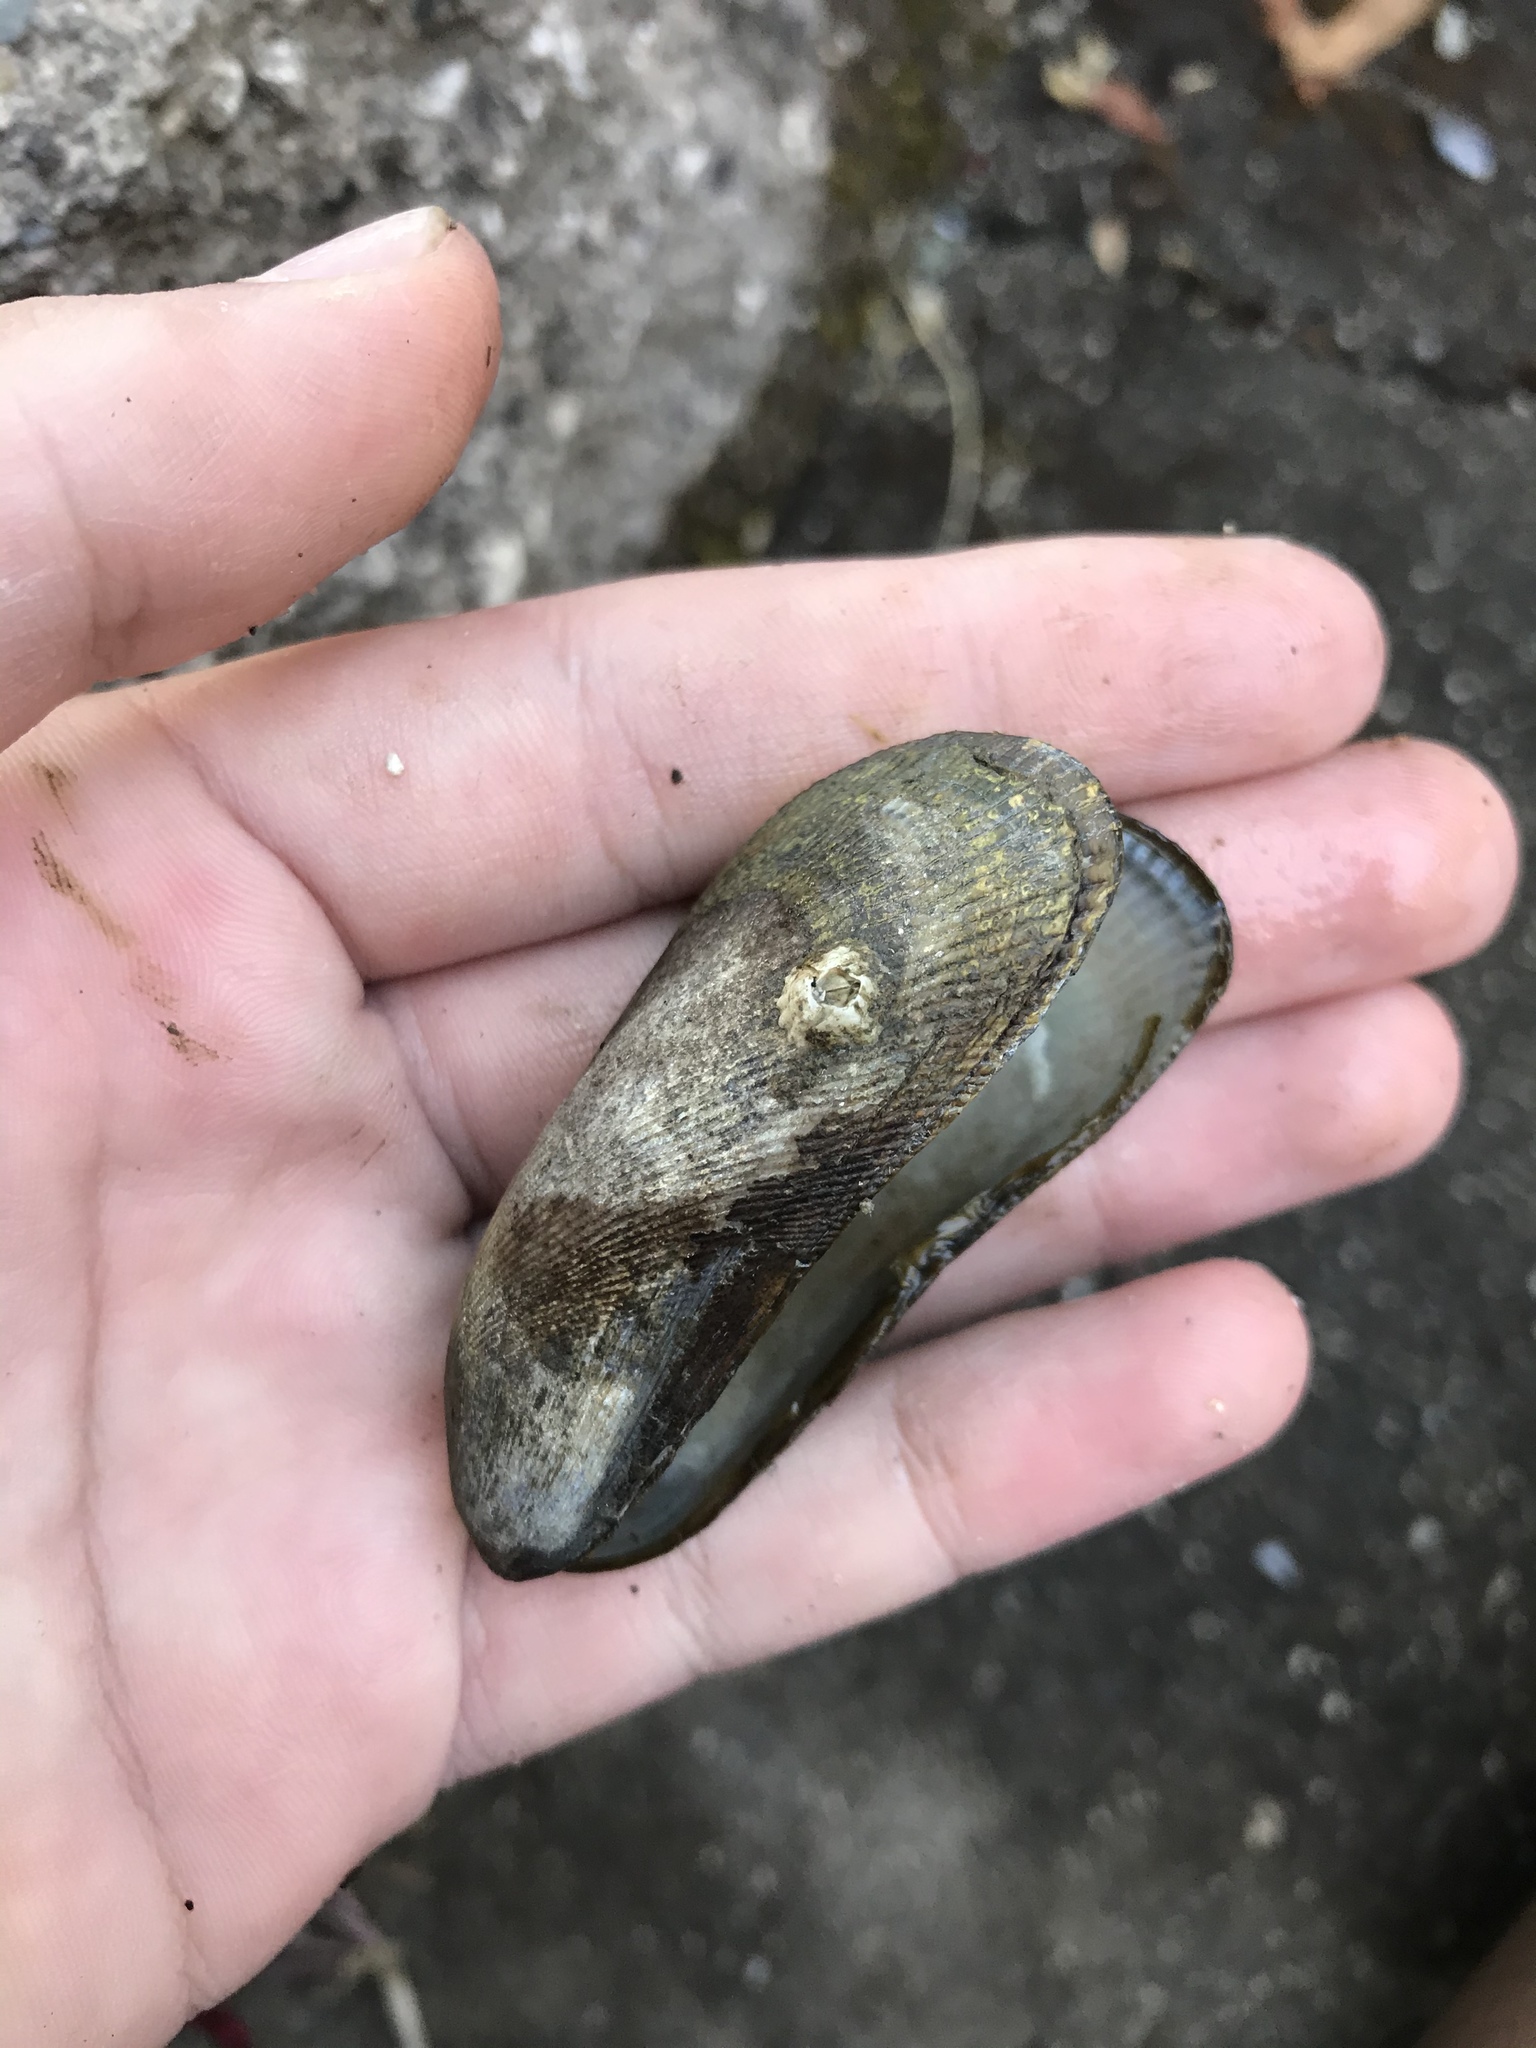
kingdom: Animalia
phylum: Mollusca
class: Bivalvia
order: Mytilida
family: Mytilidae
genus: Geukensia
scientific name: Geukensia demissa
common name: Ribbed mussel
